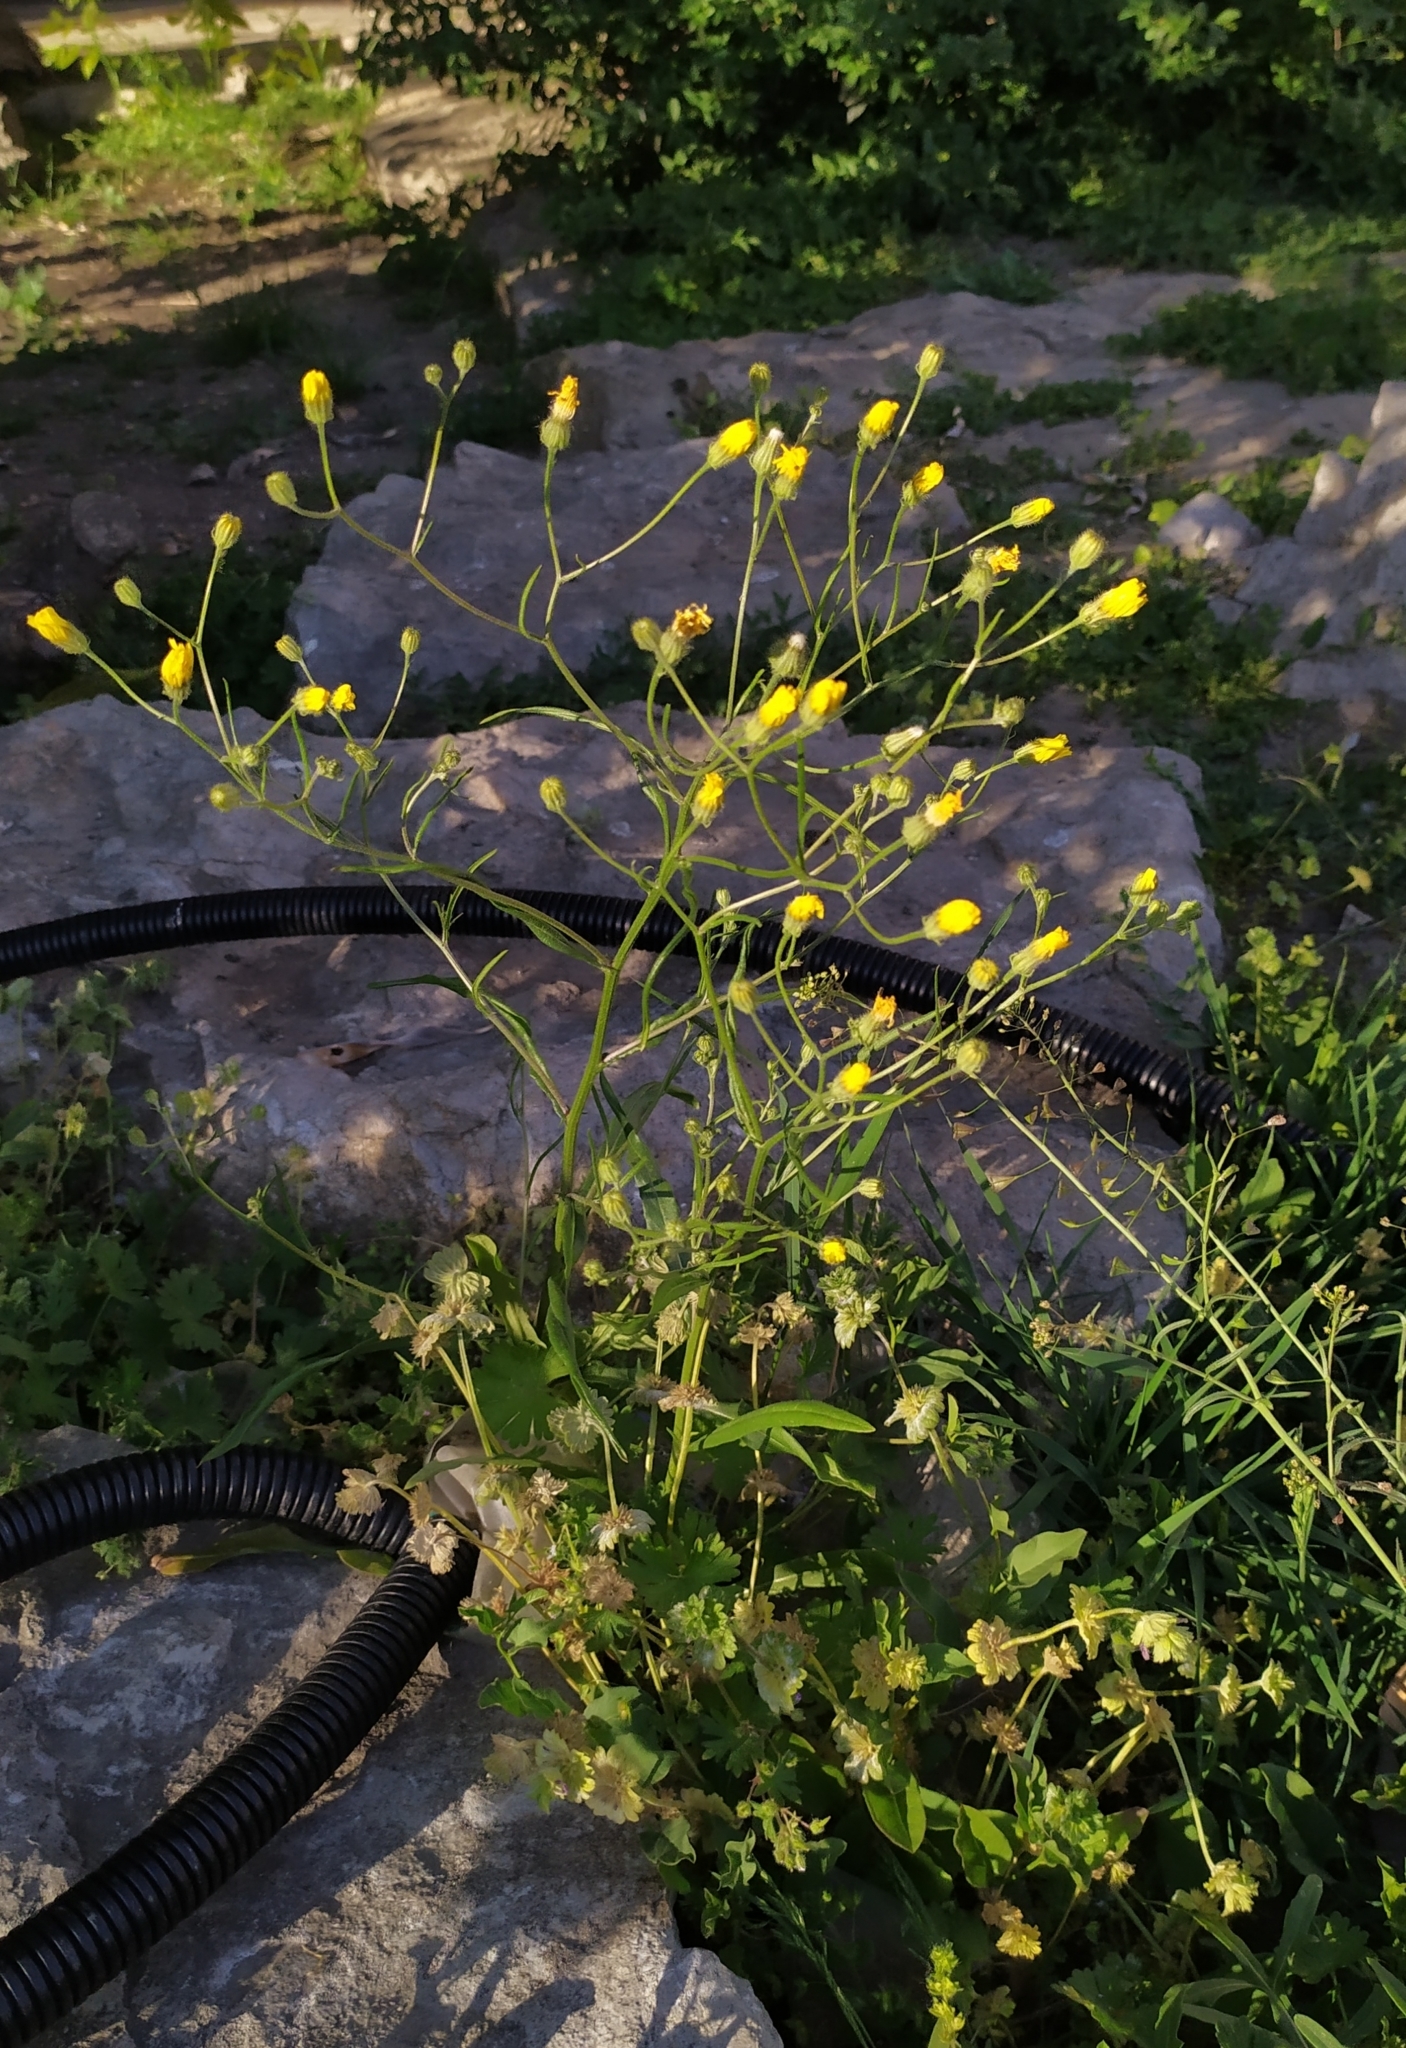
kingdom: Plantae
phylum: Tracheophyta
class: Magnoliopsida
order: Asterales
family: Asteraceae
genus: Crepis
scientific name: Crepis tectorum
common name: Narrow-leaved hawk's-beard
